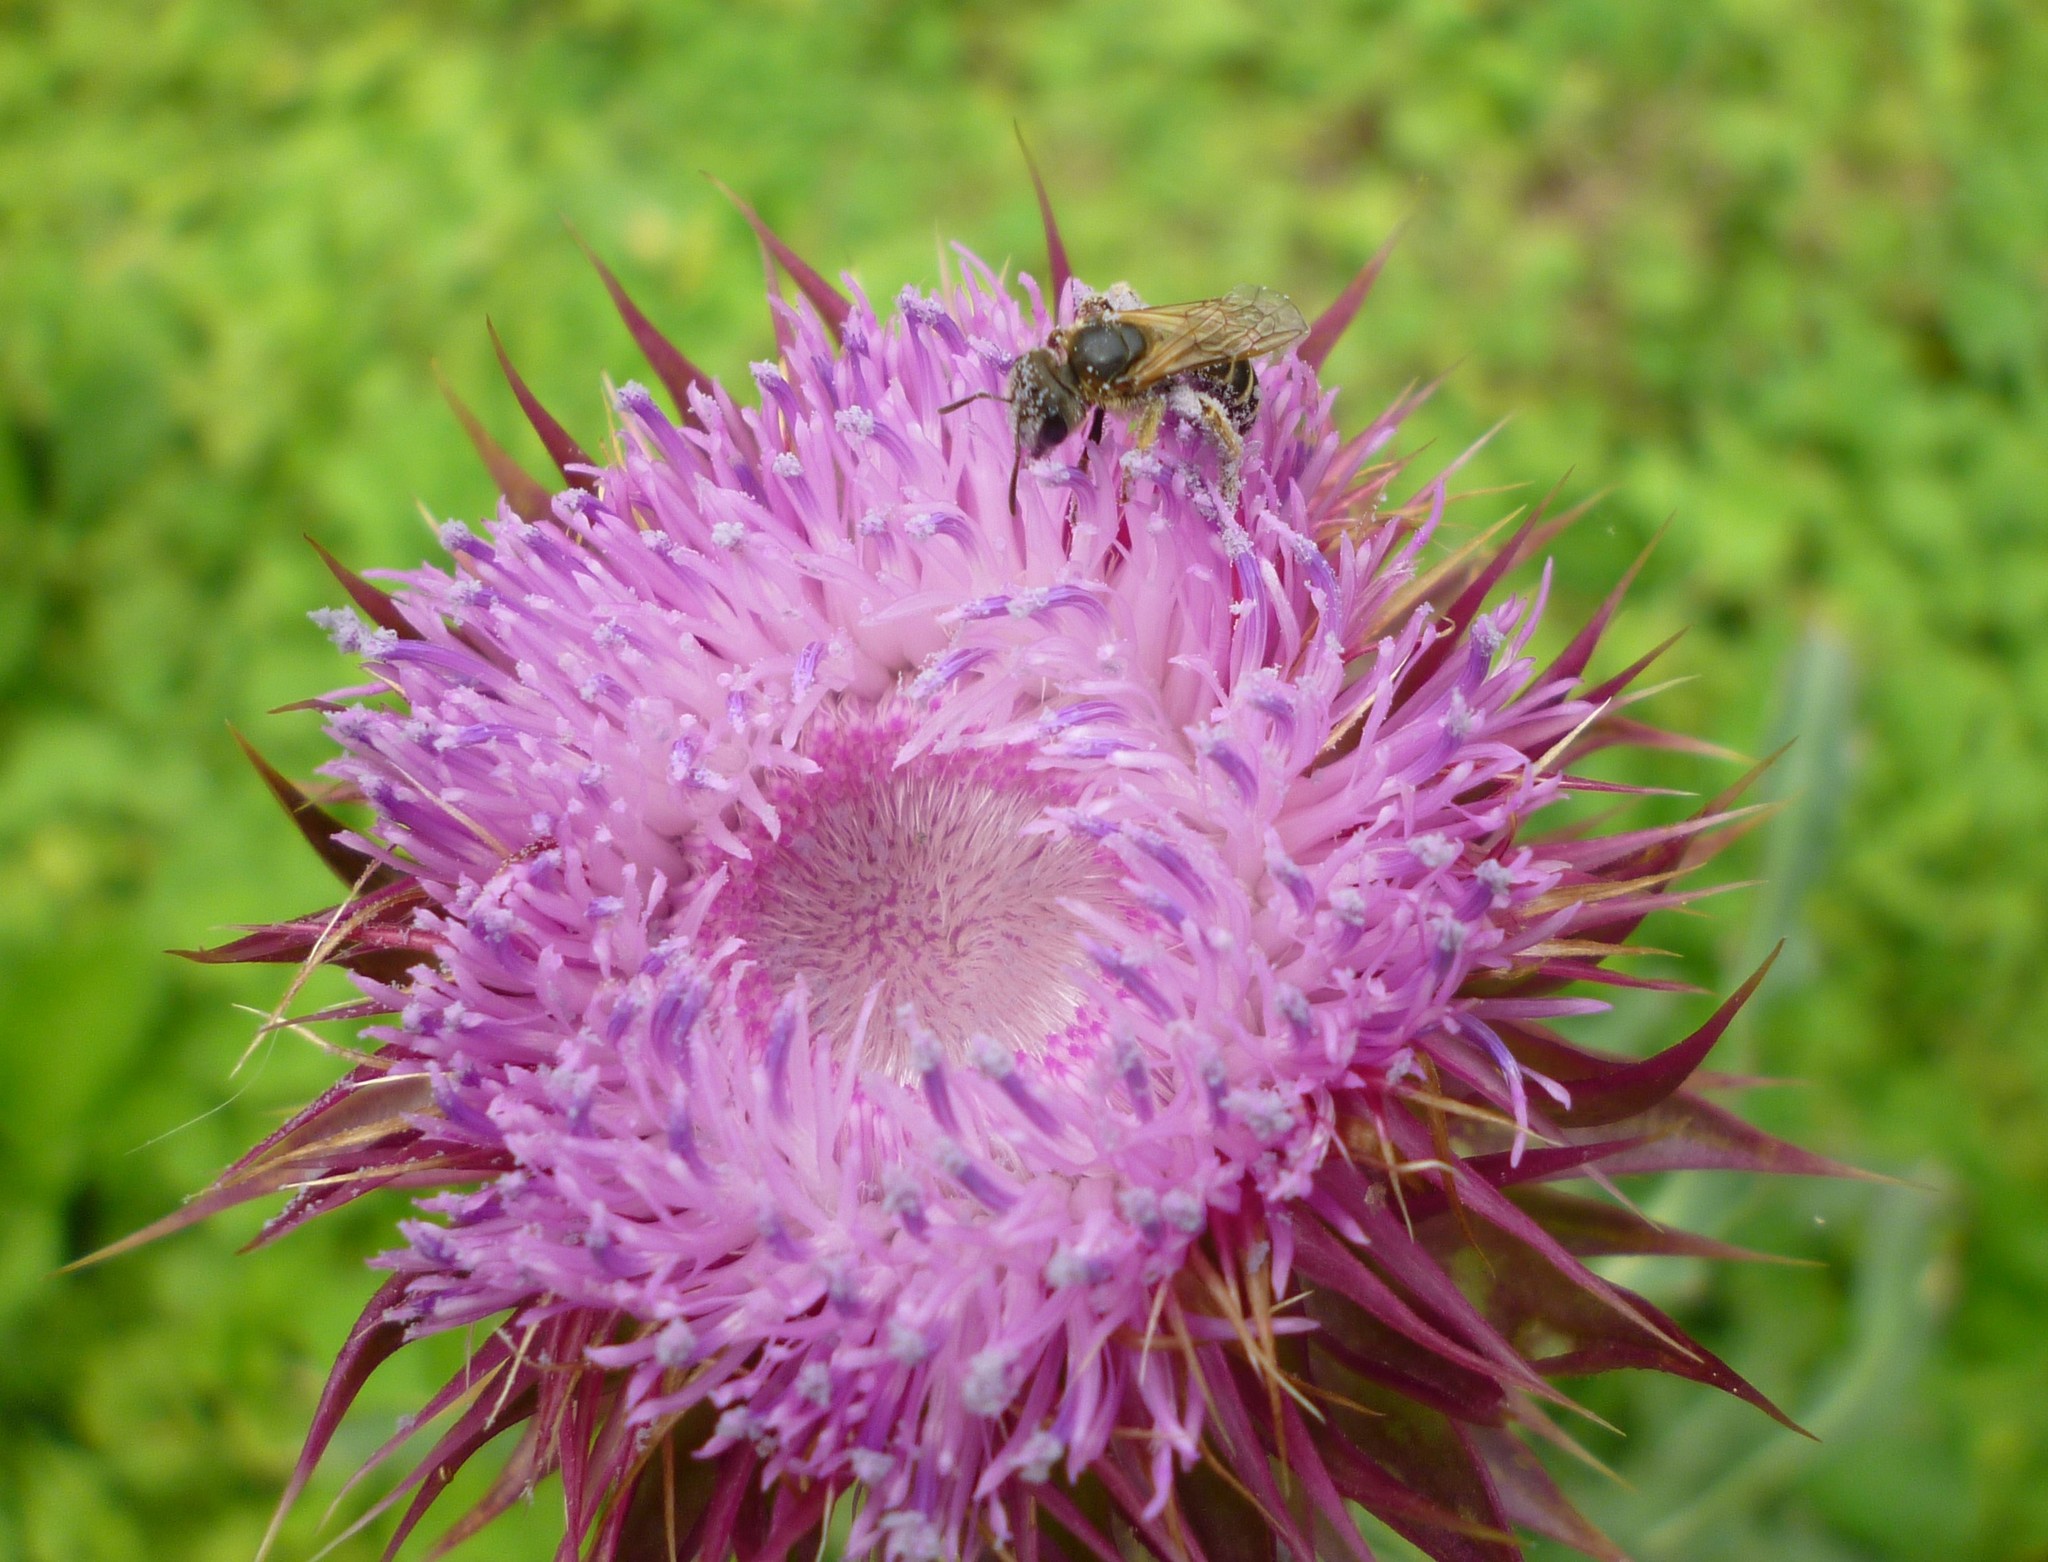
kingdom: Plantae
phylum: Tracheophyta
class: Magnoliopsida
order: Asterales
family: Asteraceae
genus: Carduus
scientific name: Carduus nutans
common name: Musk thistle
